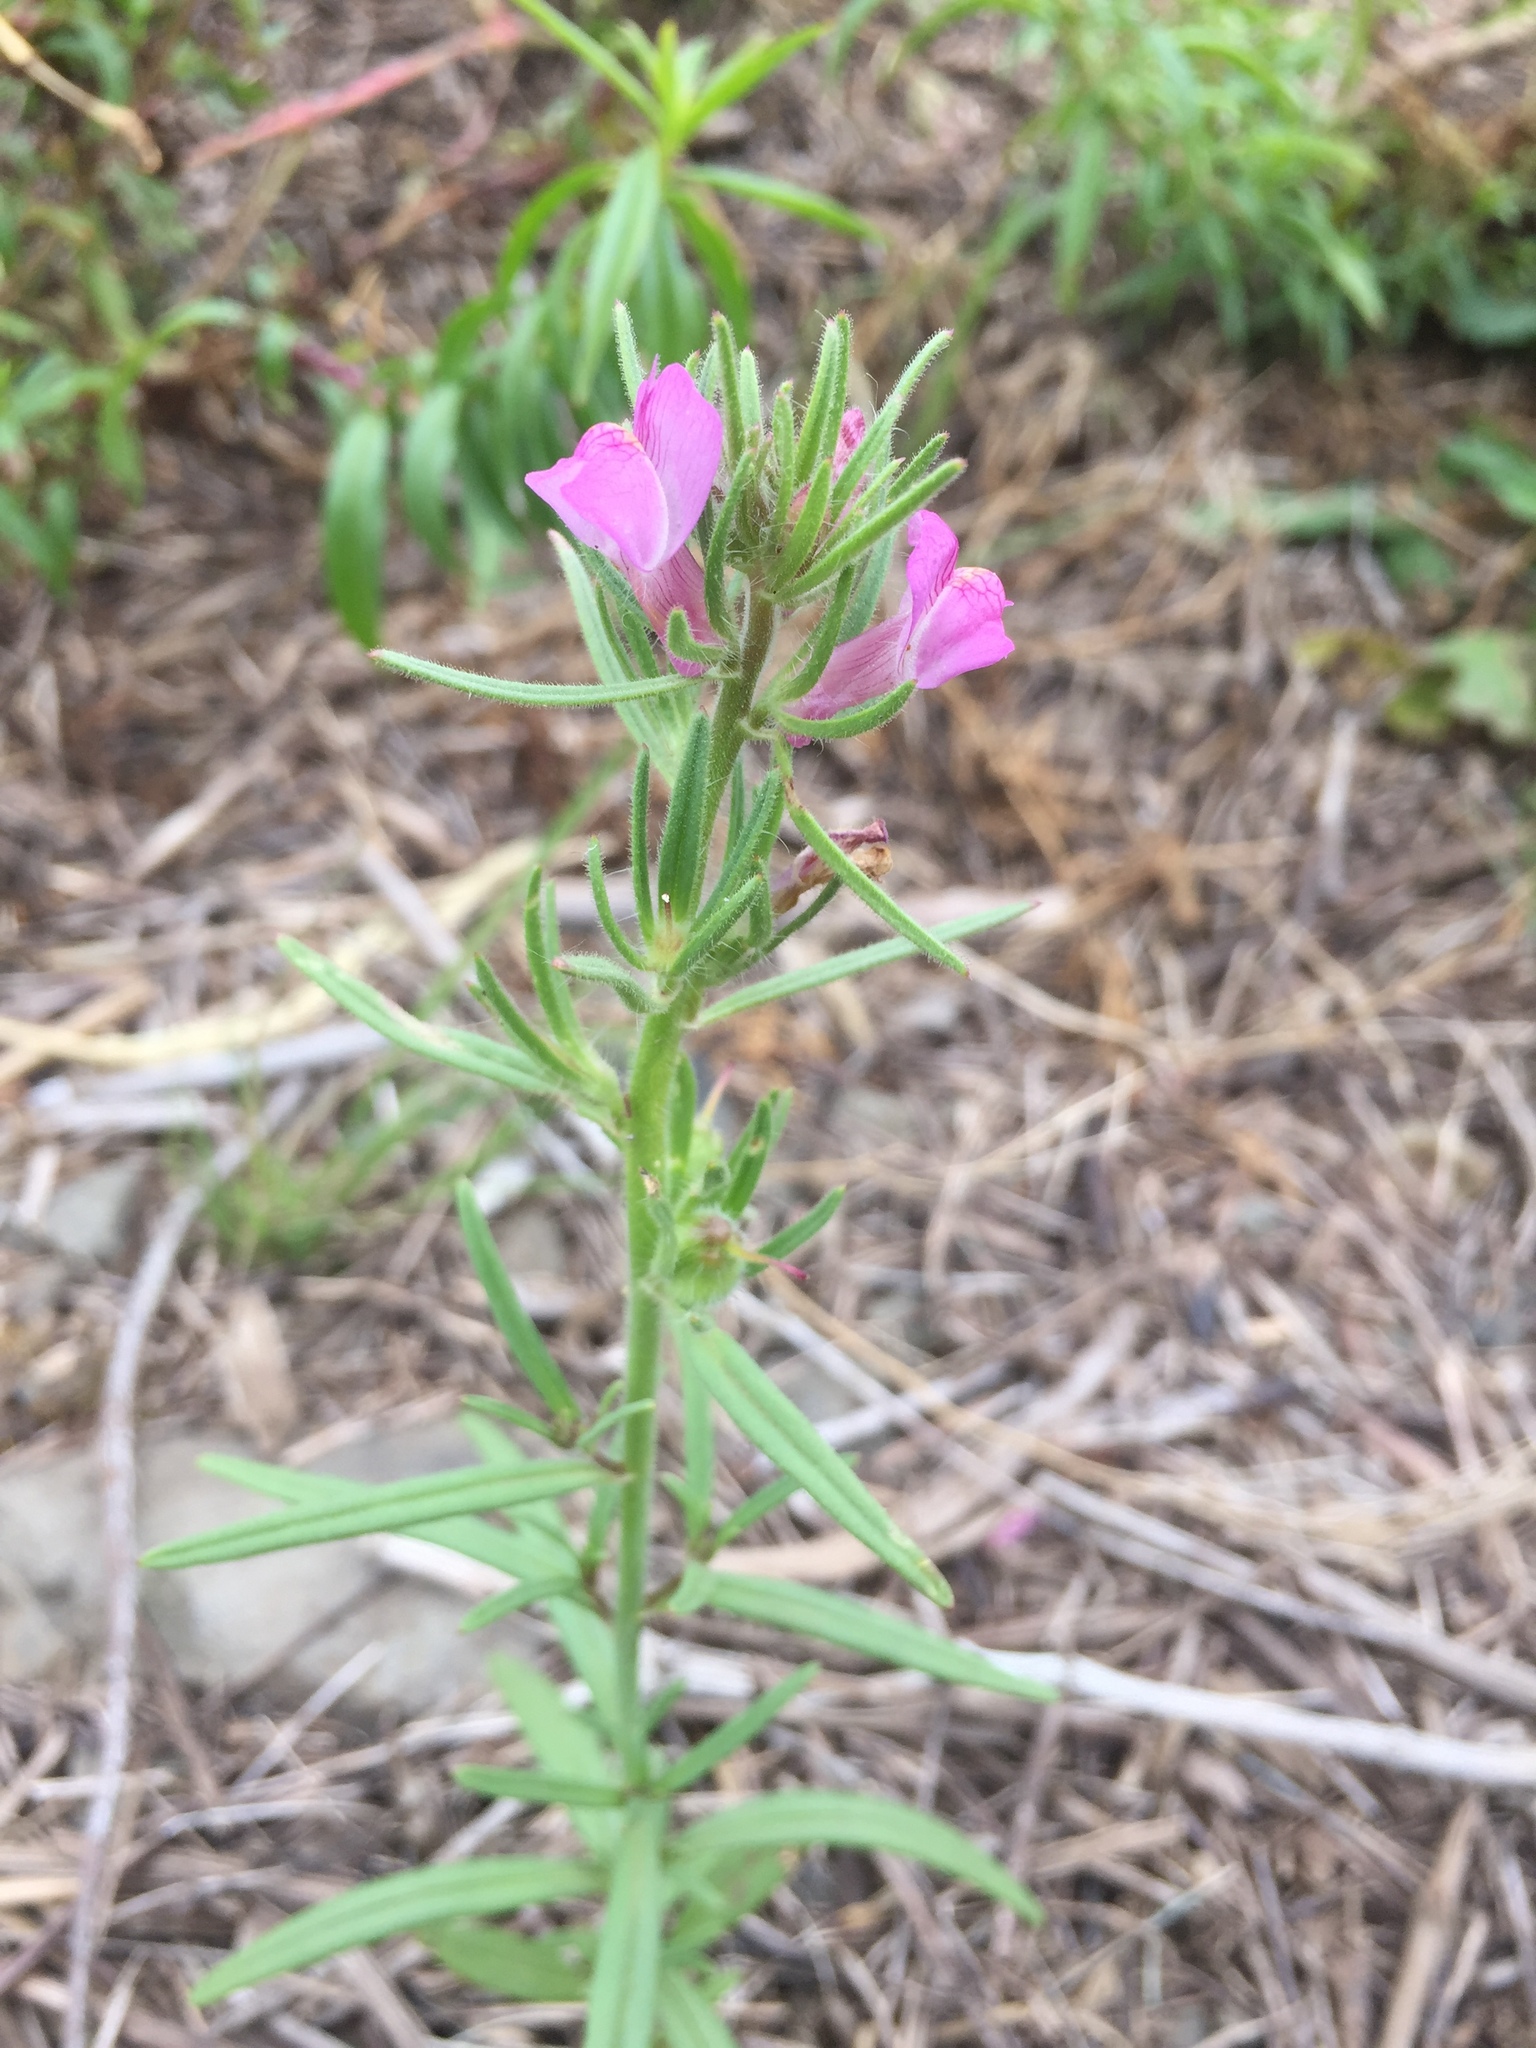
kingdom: Plantae
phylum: Tracheophyta
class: Magnoliopsida
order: Lamiales
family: Plantaginaceae
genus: Misopates
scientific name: Misopates orontium
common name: Weasel's-snout
